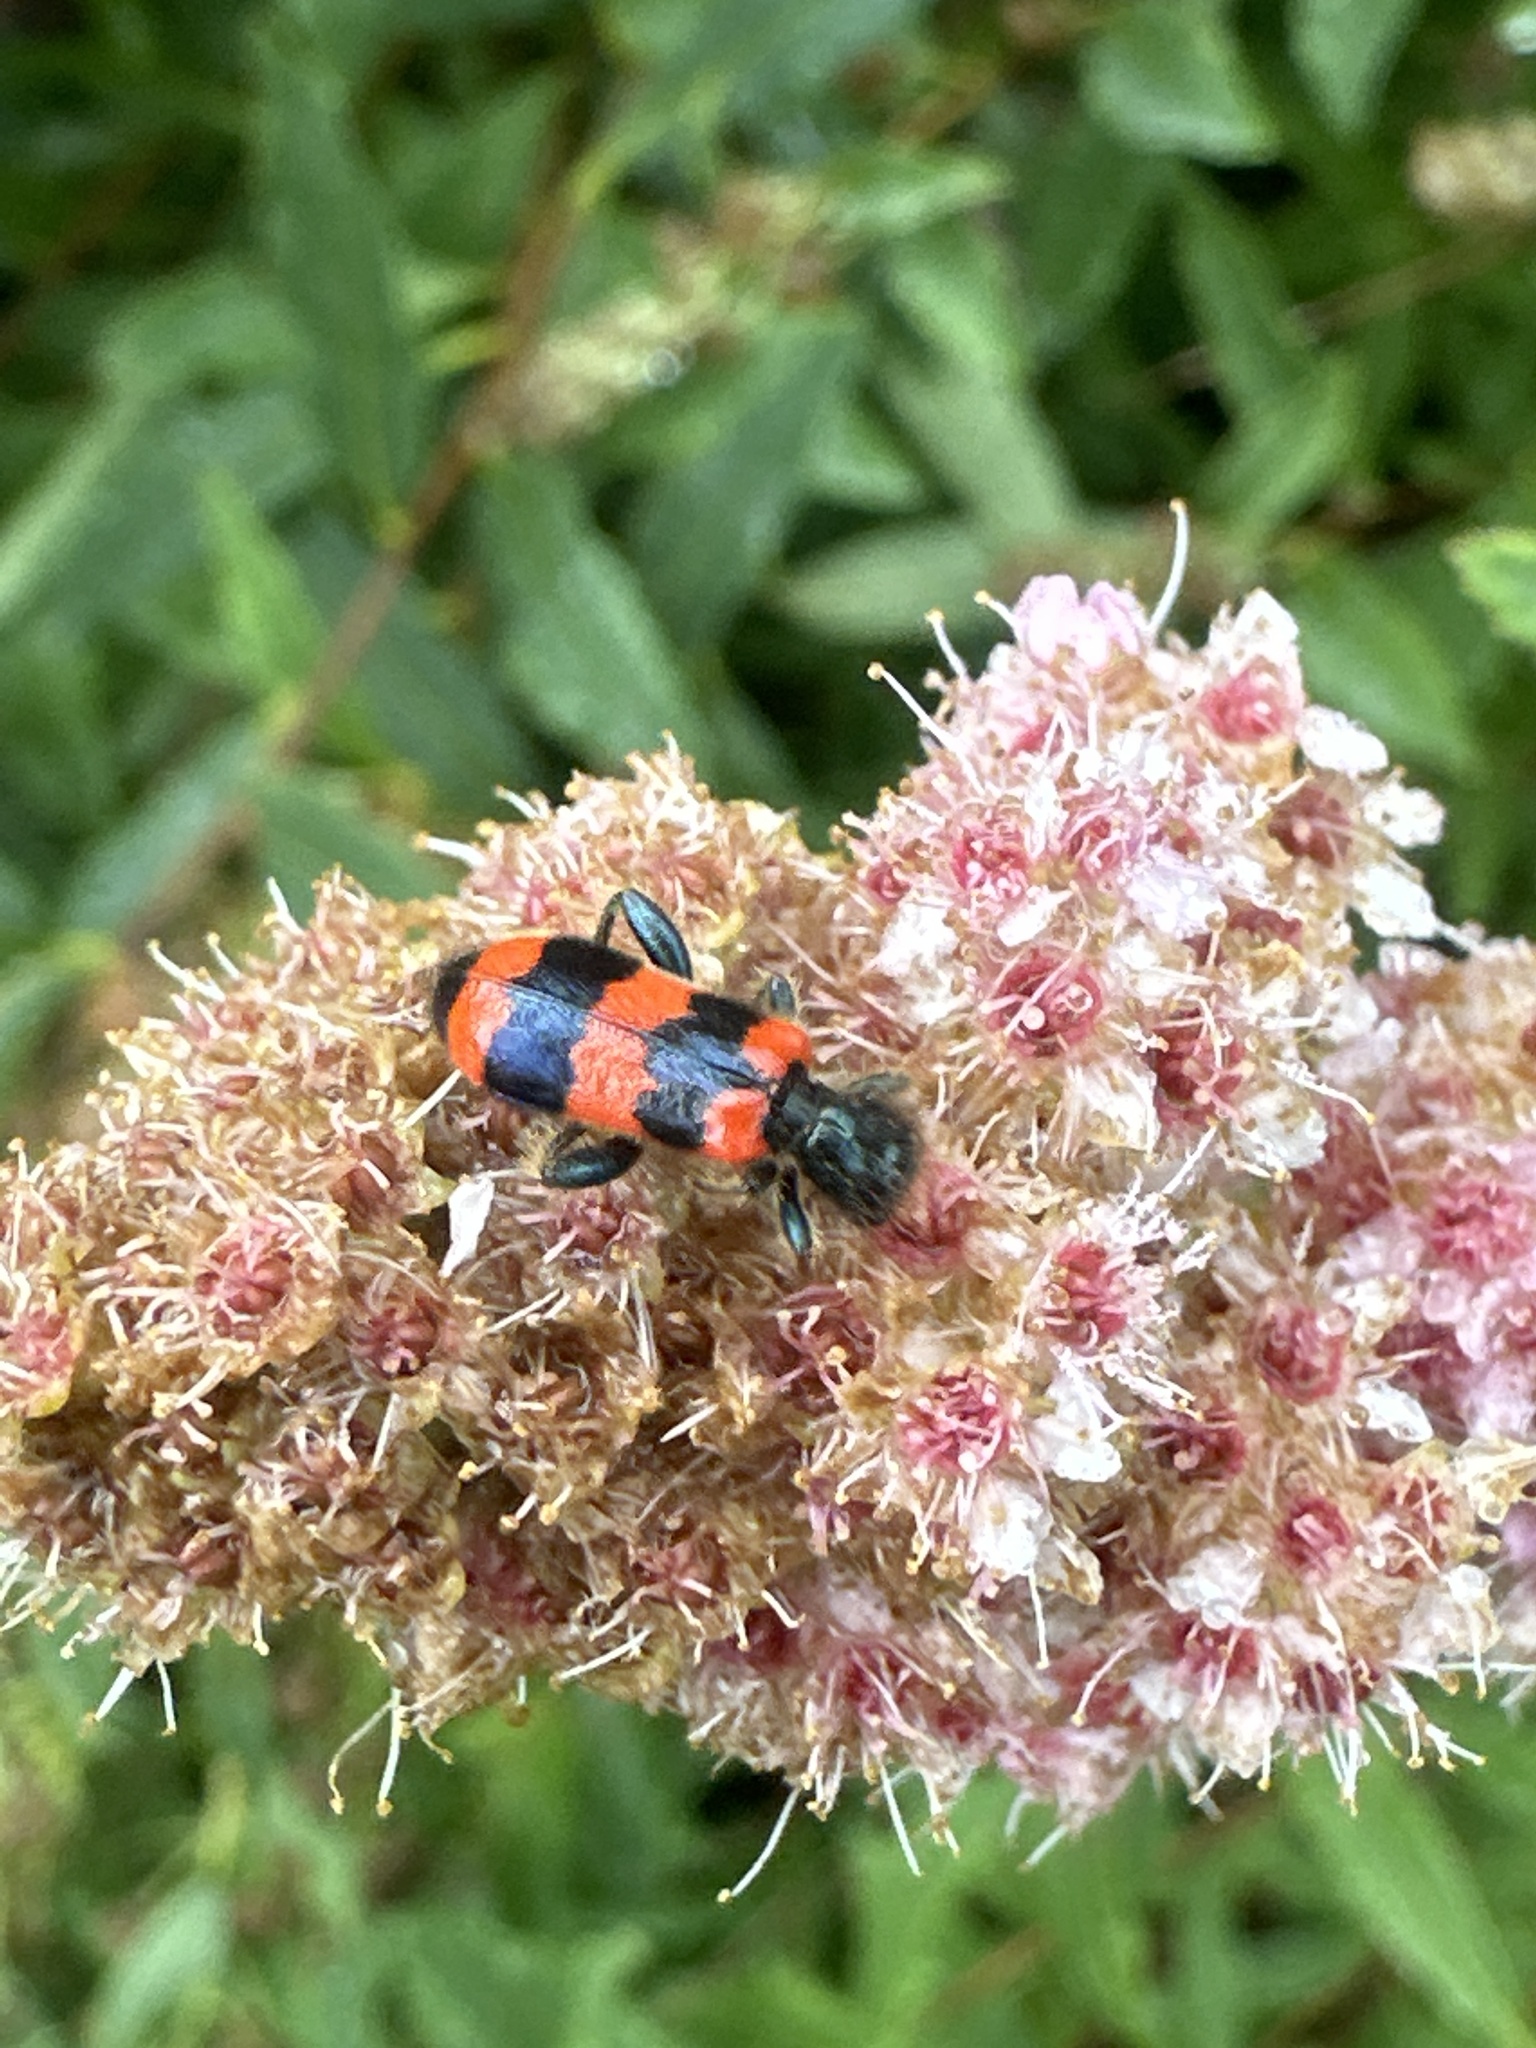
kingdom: Animalia
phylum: Arthropoda
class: Insecta
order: Coleoptera
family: Cleridae
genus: Trichodes
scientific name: Trichodes apiarius
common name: Bee-eating beetle
